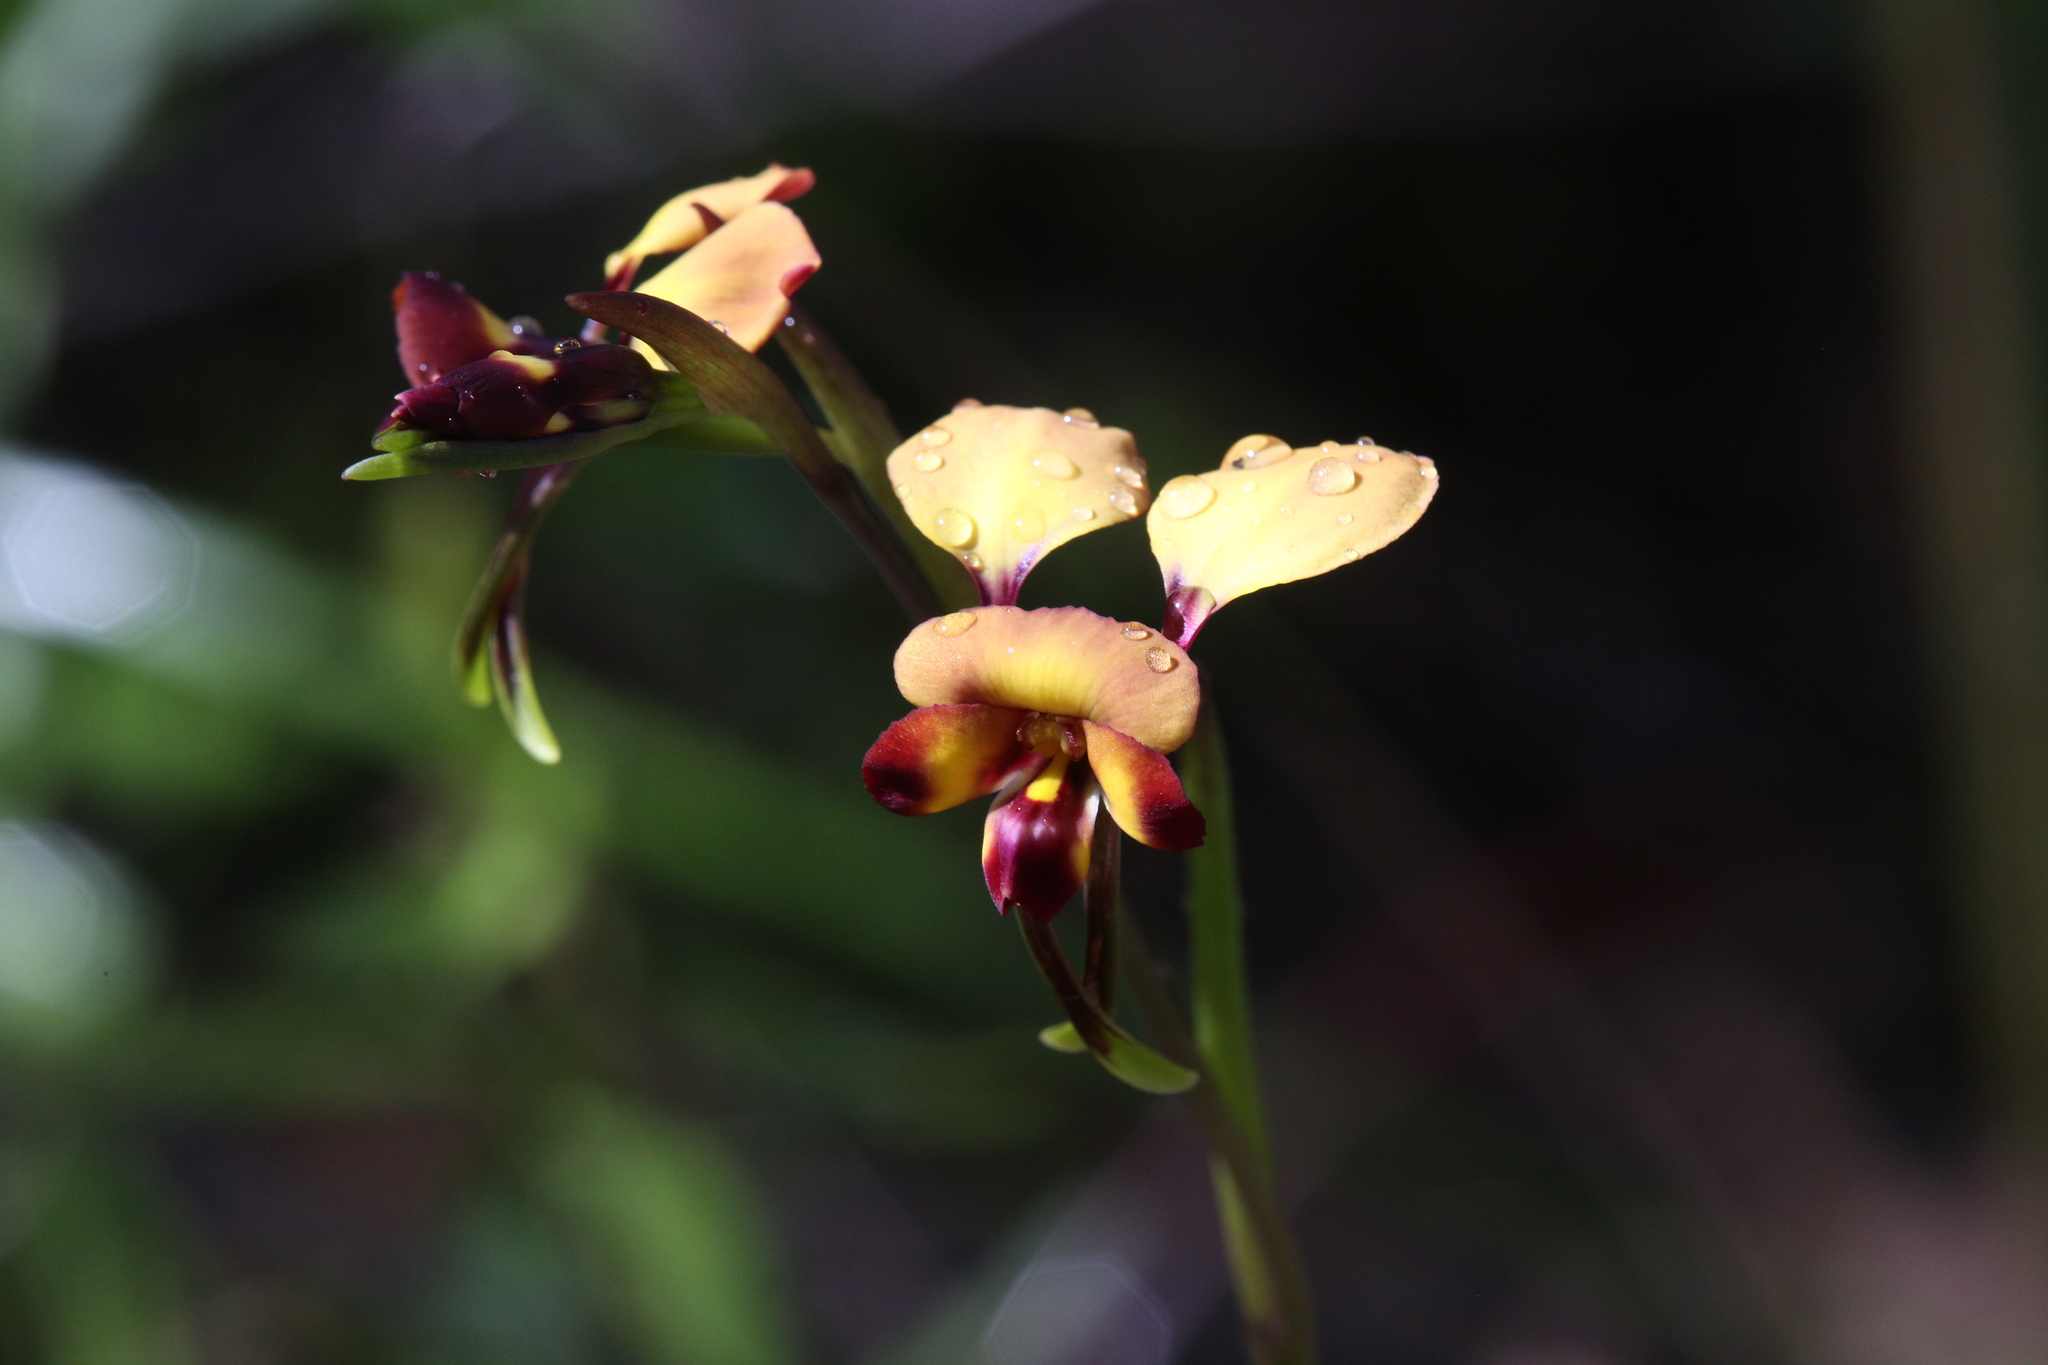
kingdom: Plantae
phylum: Tracheophyta
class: Liliopsida
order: Asparagales
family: Orchidaceae
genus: Diuris
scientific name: Diuris cruenta
